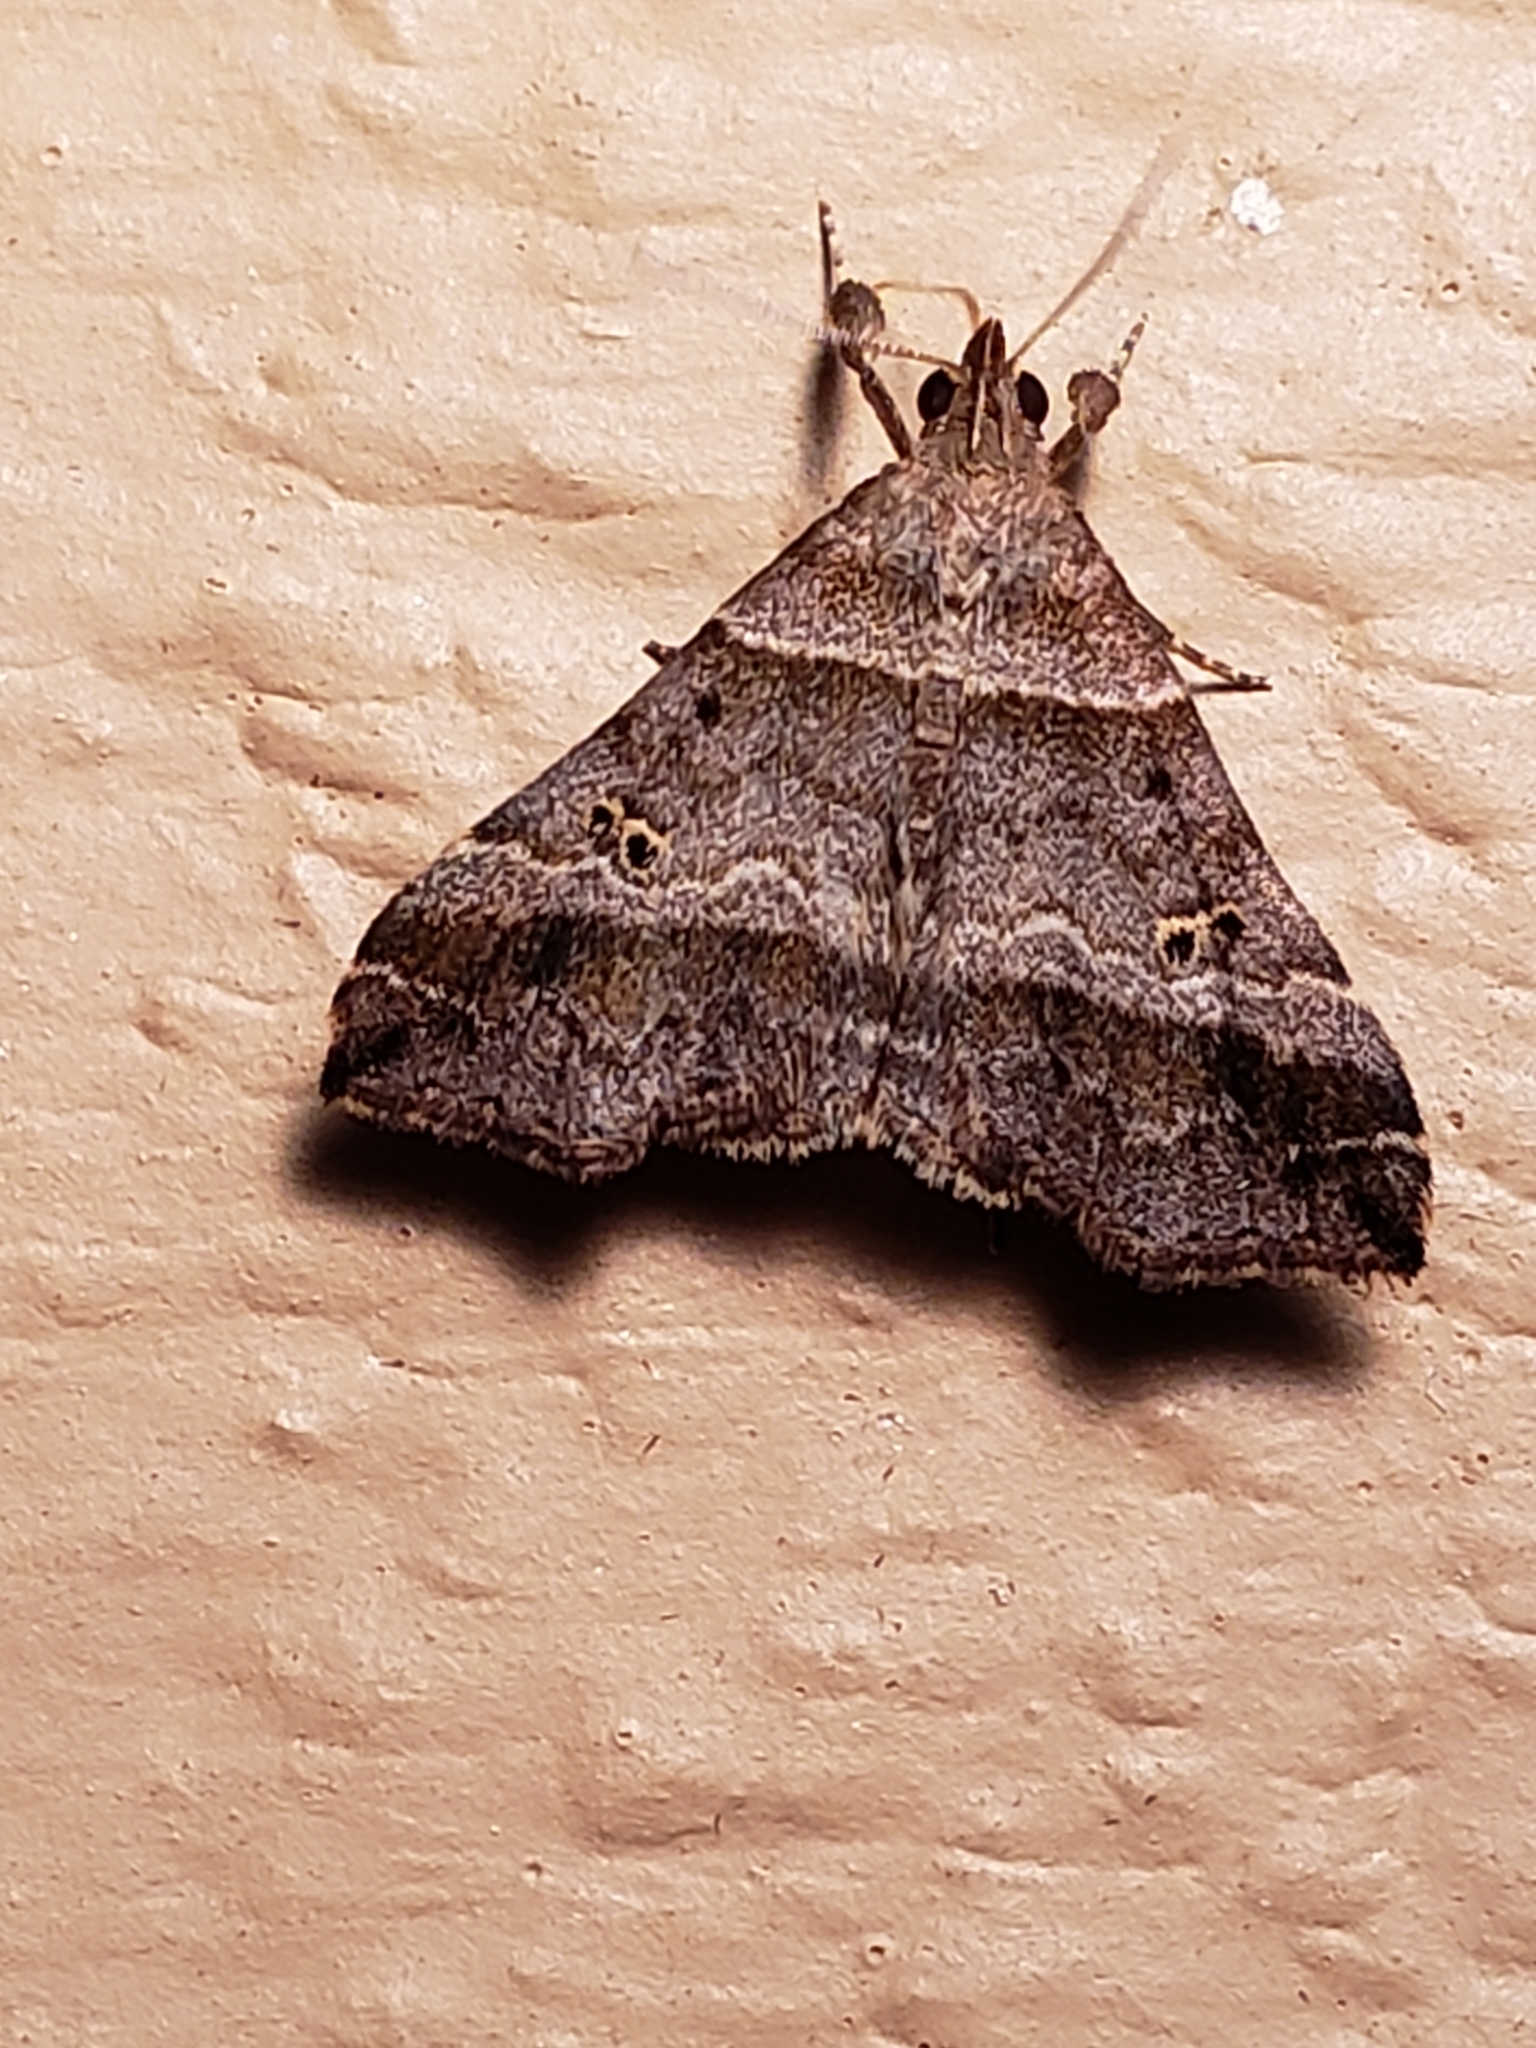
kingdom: Animalia
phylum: Arthropoda
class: Insecta
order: Lepidoptera
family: Erebidae
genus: Phaeolita
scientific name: Phaeolita pyramusalis
